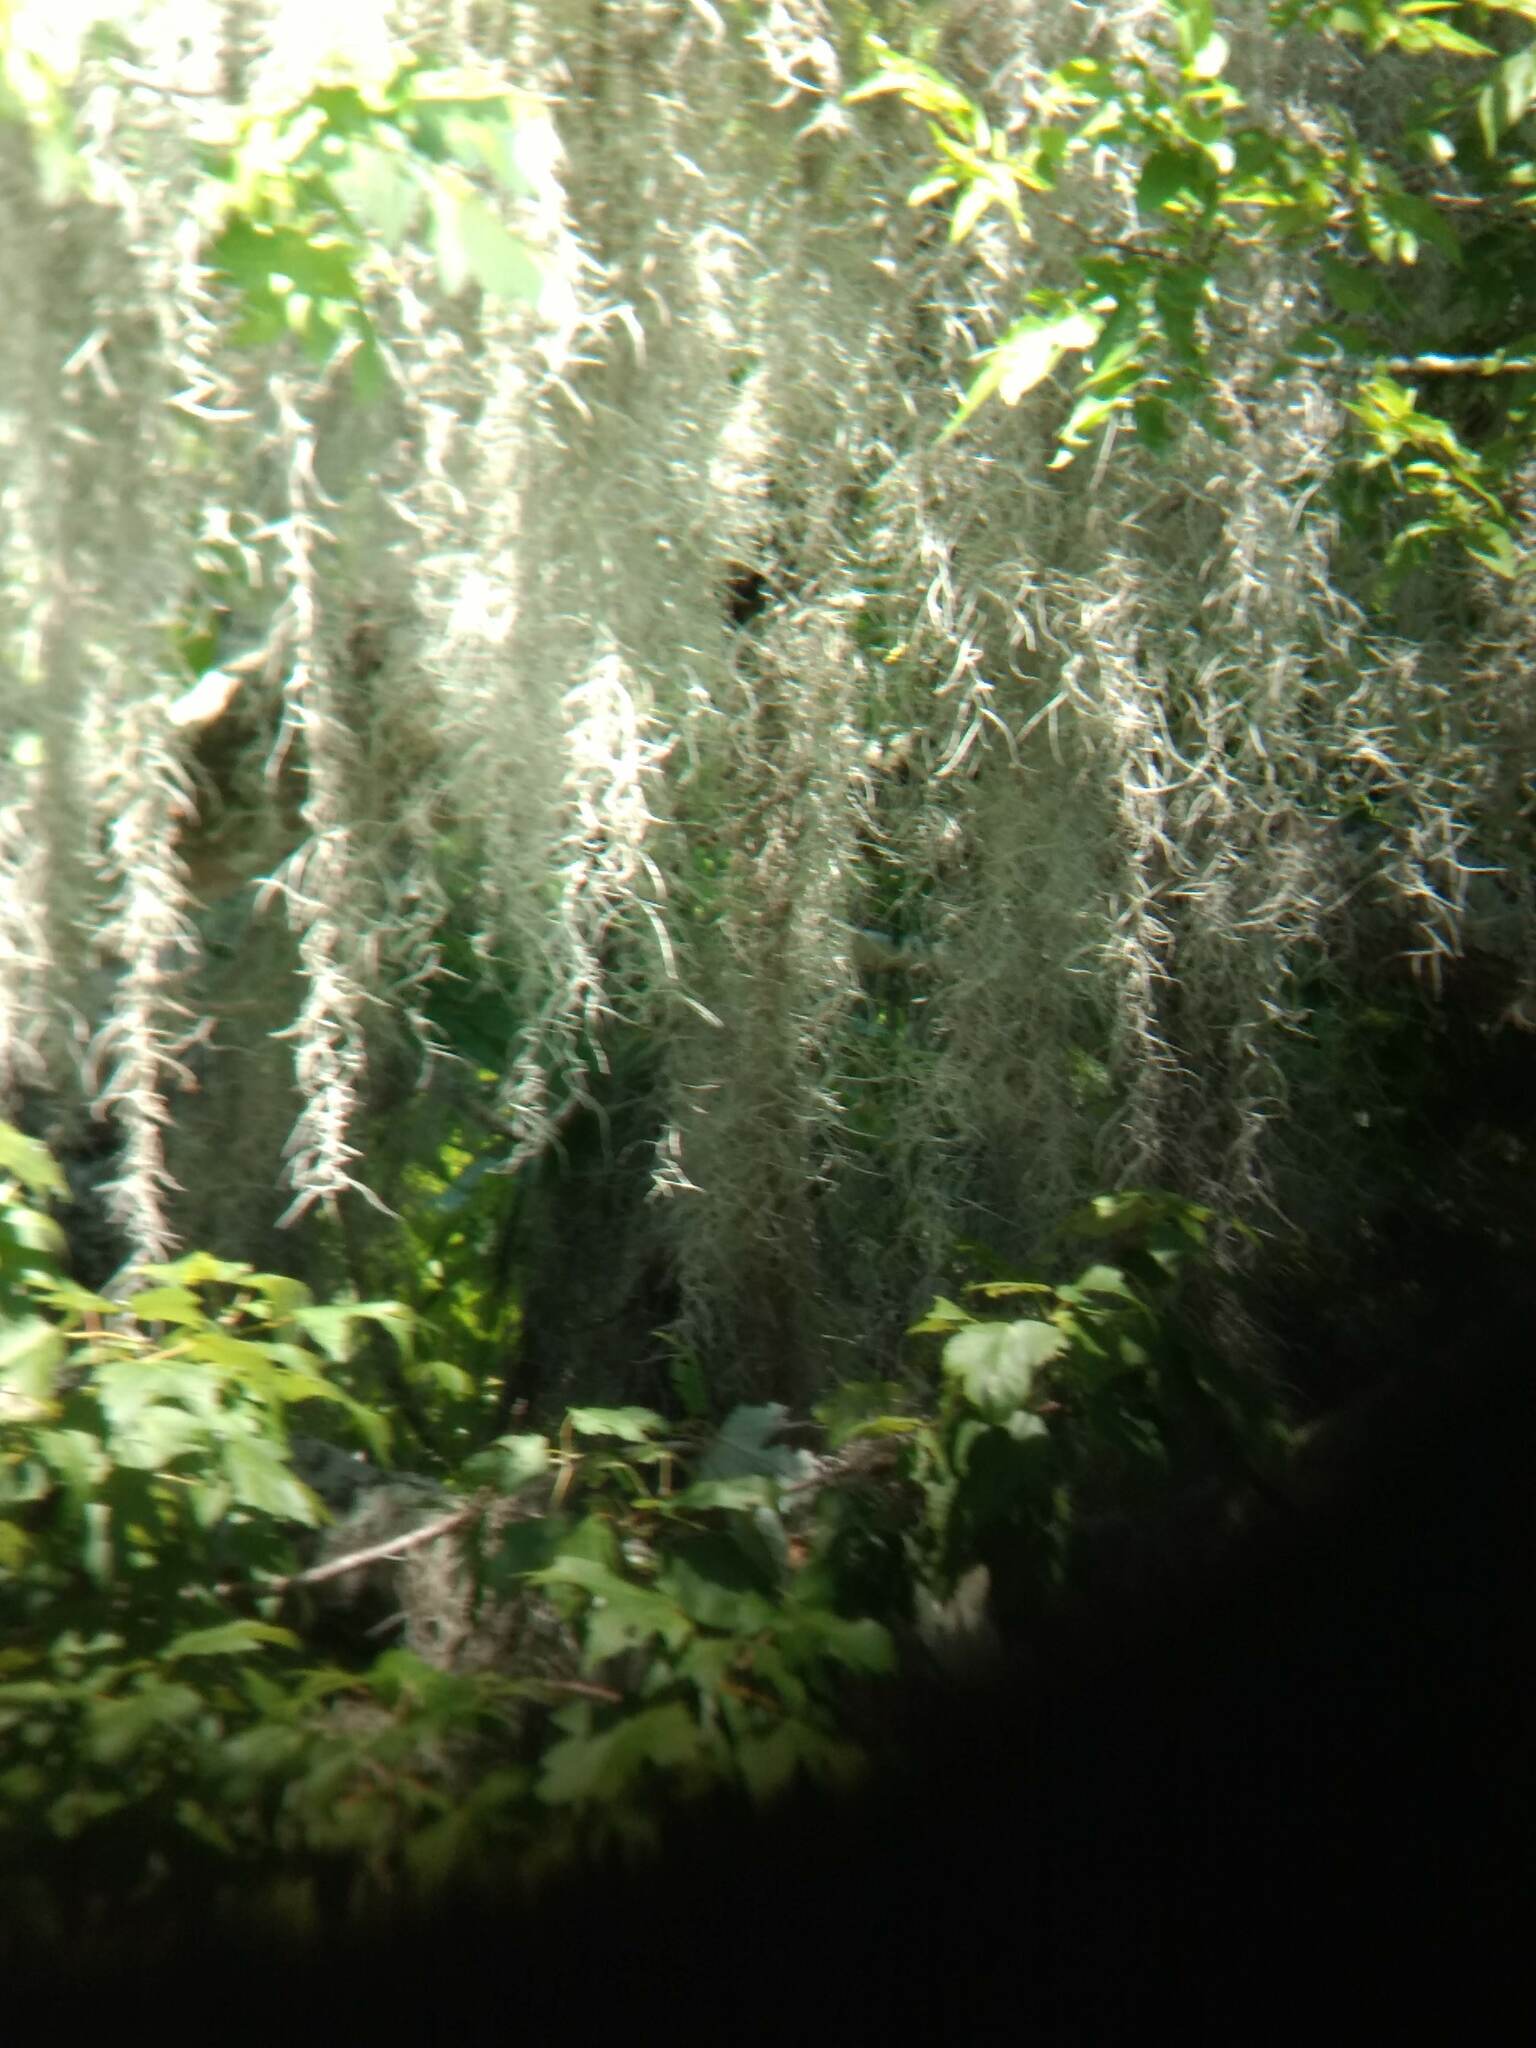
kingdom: Plantae
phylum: Tracheophyta
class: Liliopsida
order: Poales
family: Bromeliaceae
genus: Tillandsia
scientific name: Tillandsia usneoides
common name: Spanish moss
